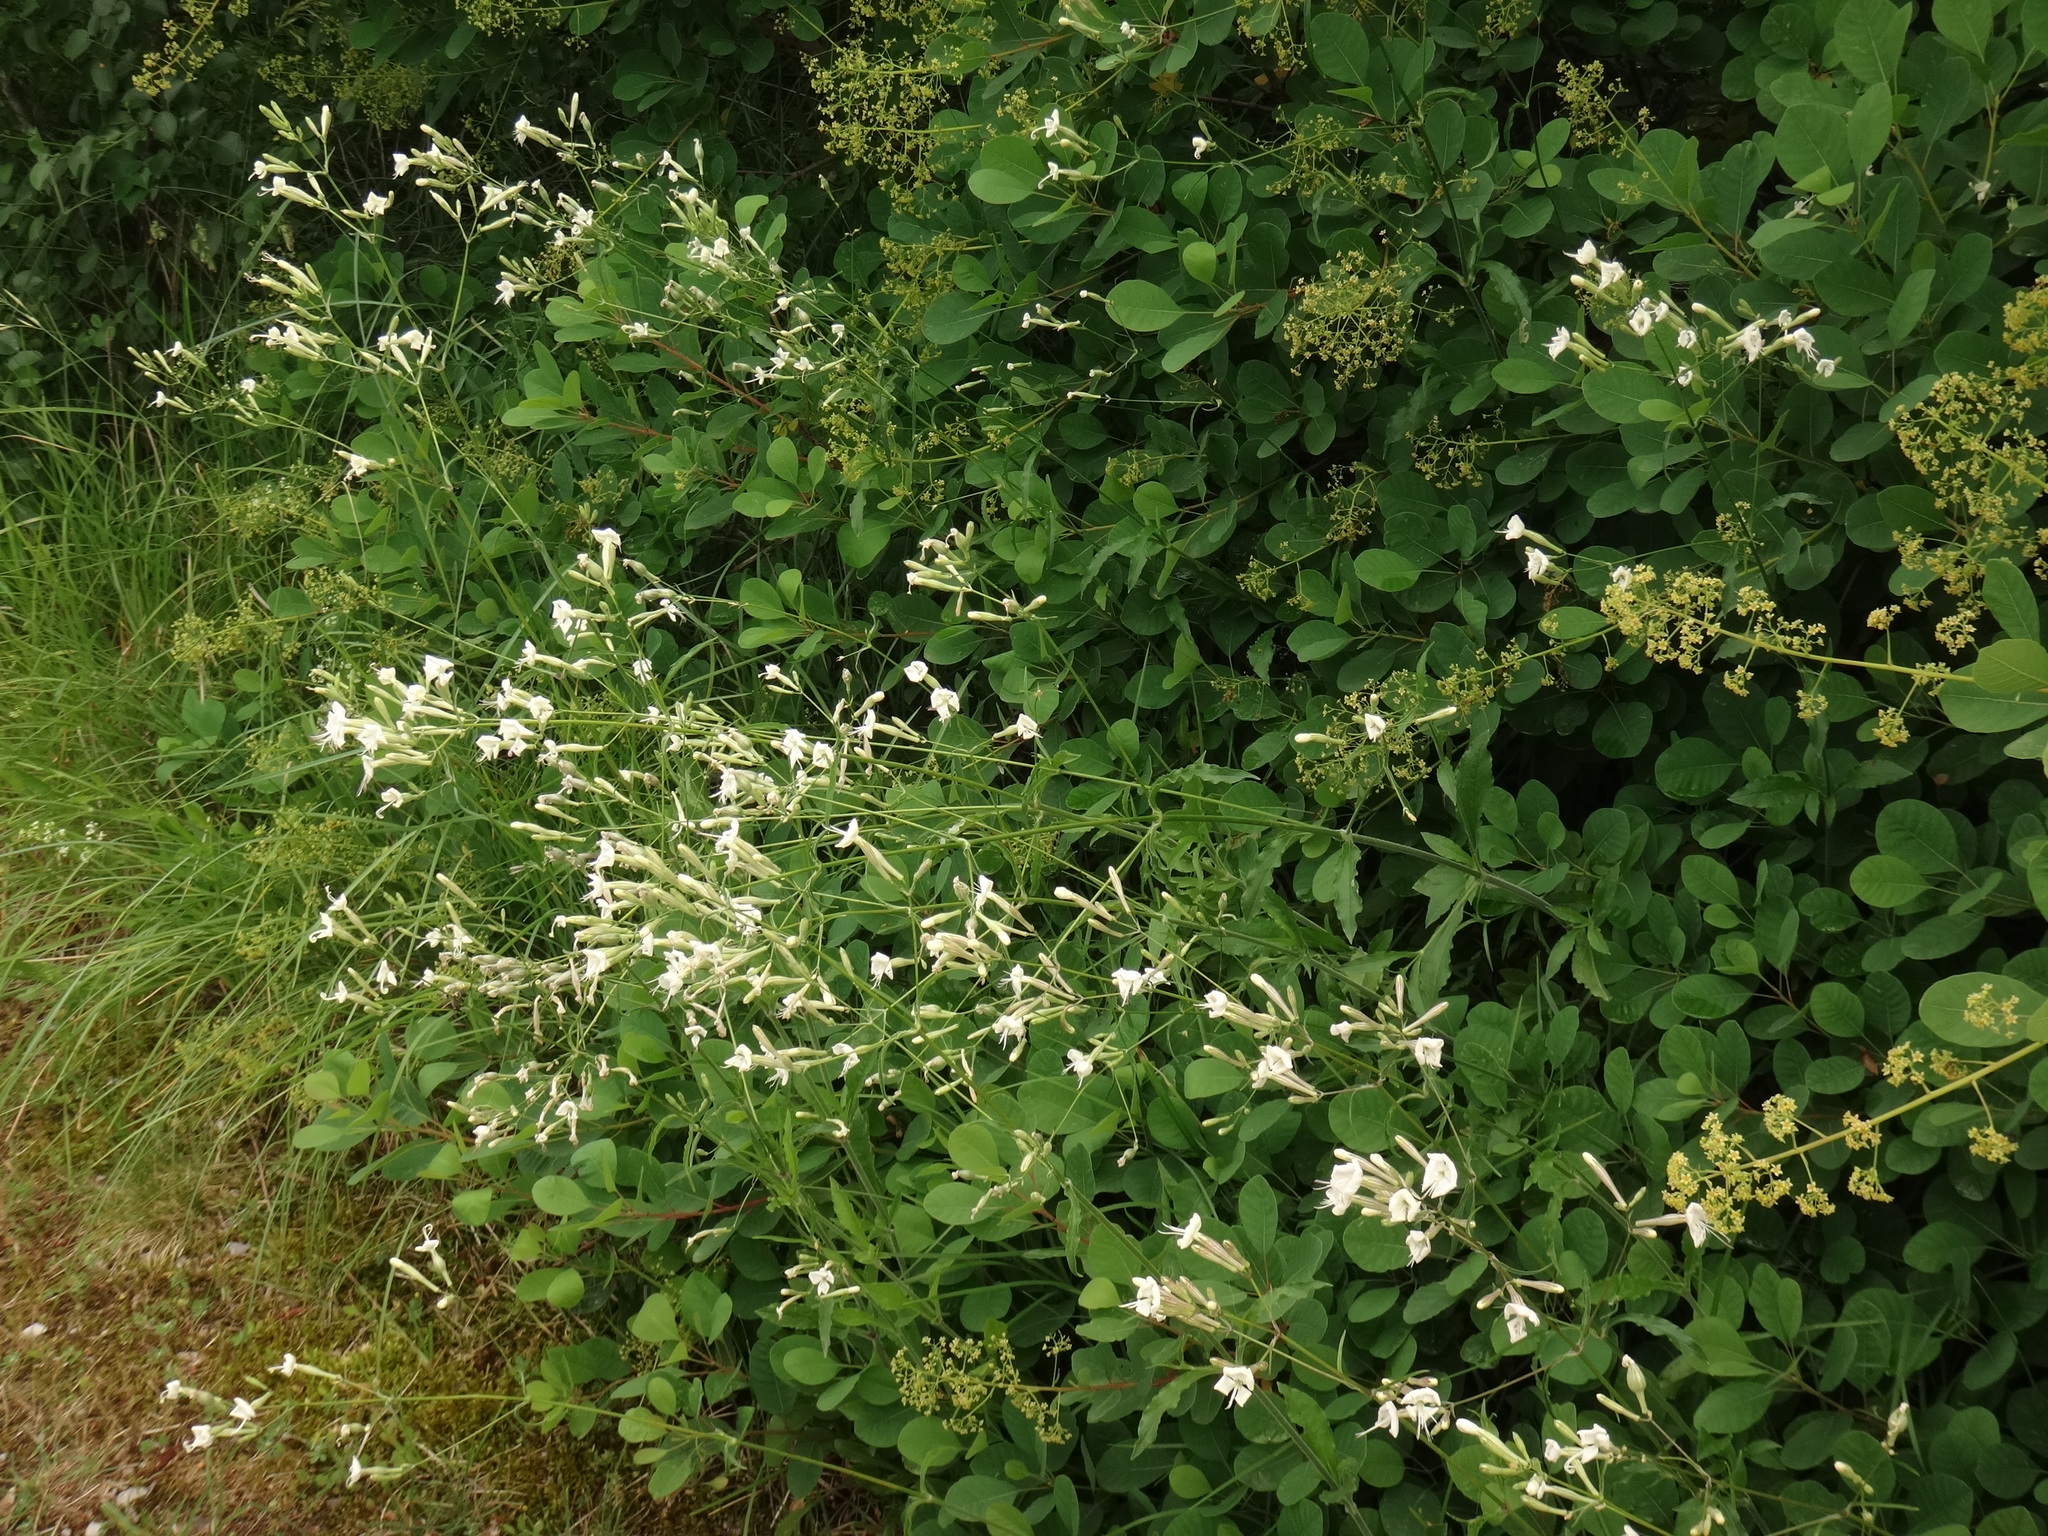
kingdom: Plantae
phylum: Tracheophyta
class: Magnoliopsida
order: Caryophyllales
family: Caryophyllaceae
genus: Silene
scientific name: Silene italica
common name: Italian catchfly
